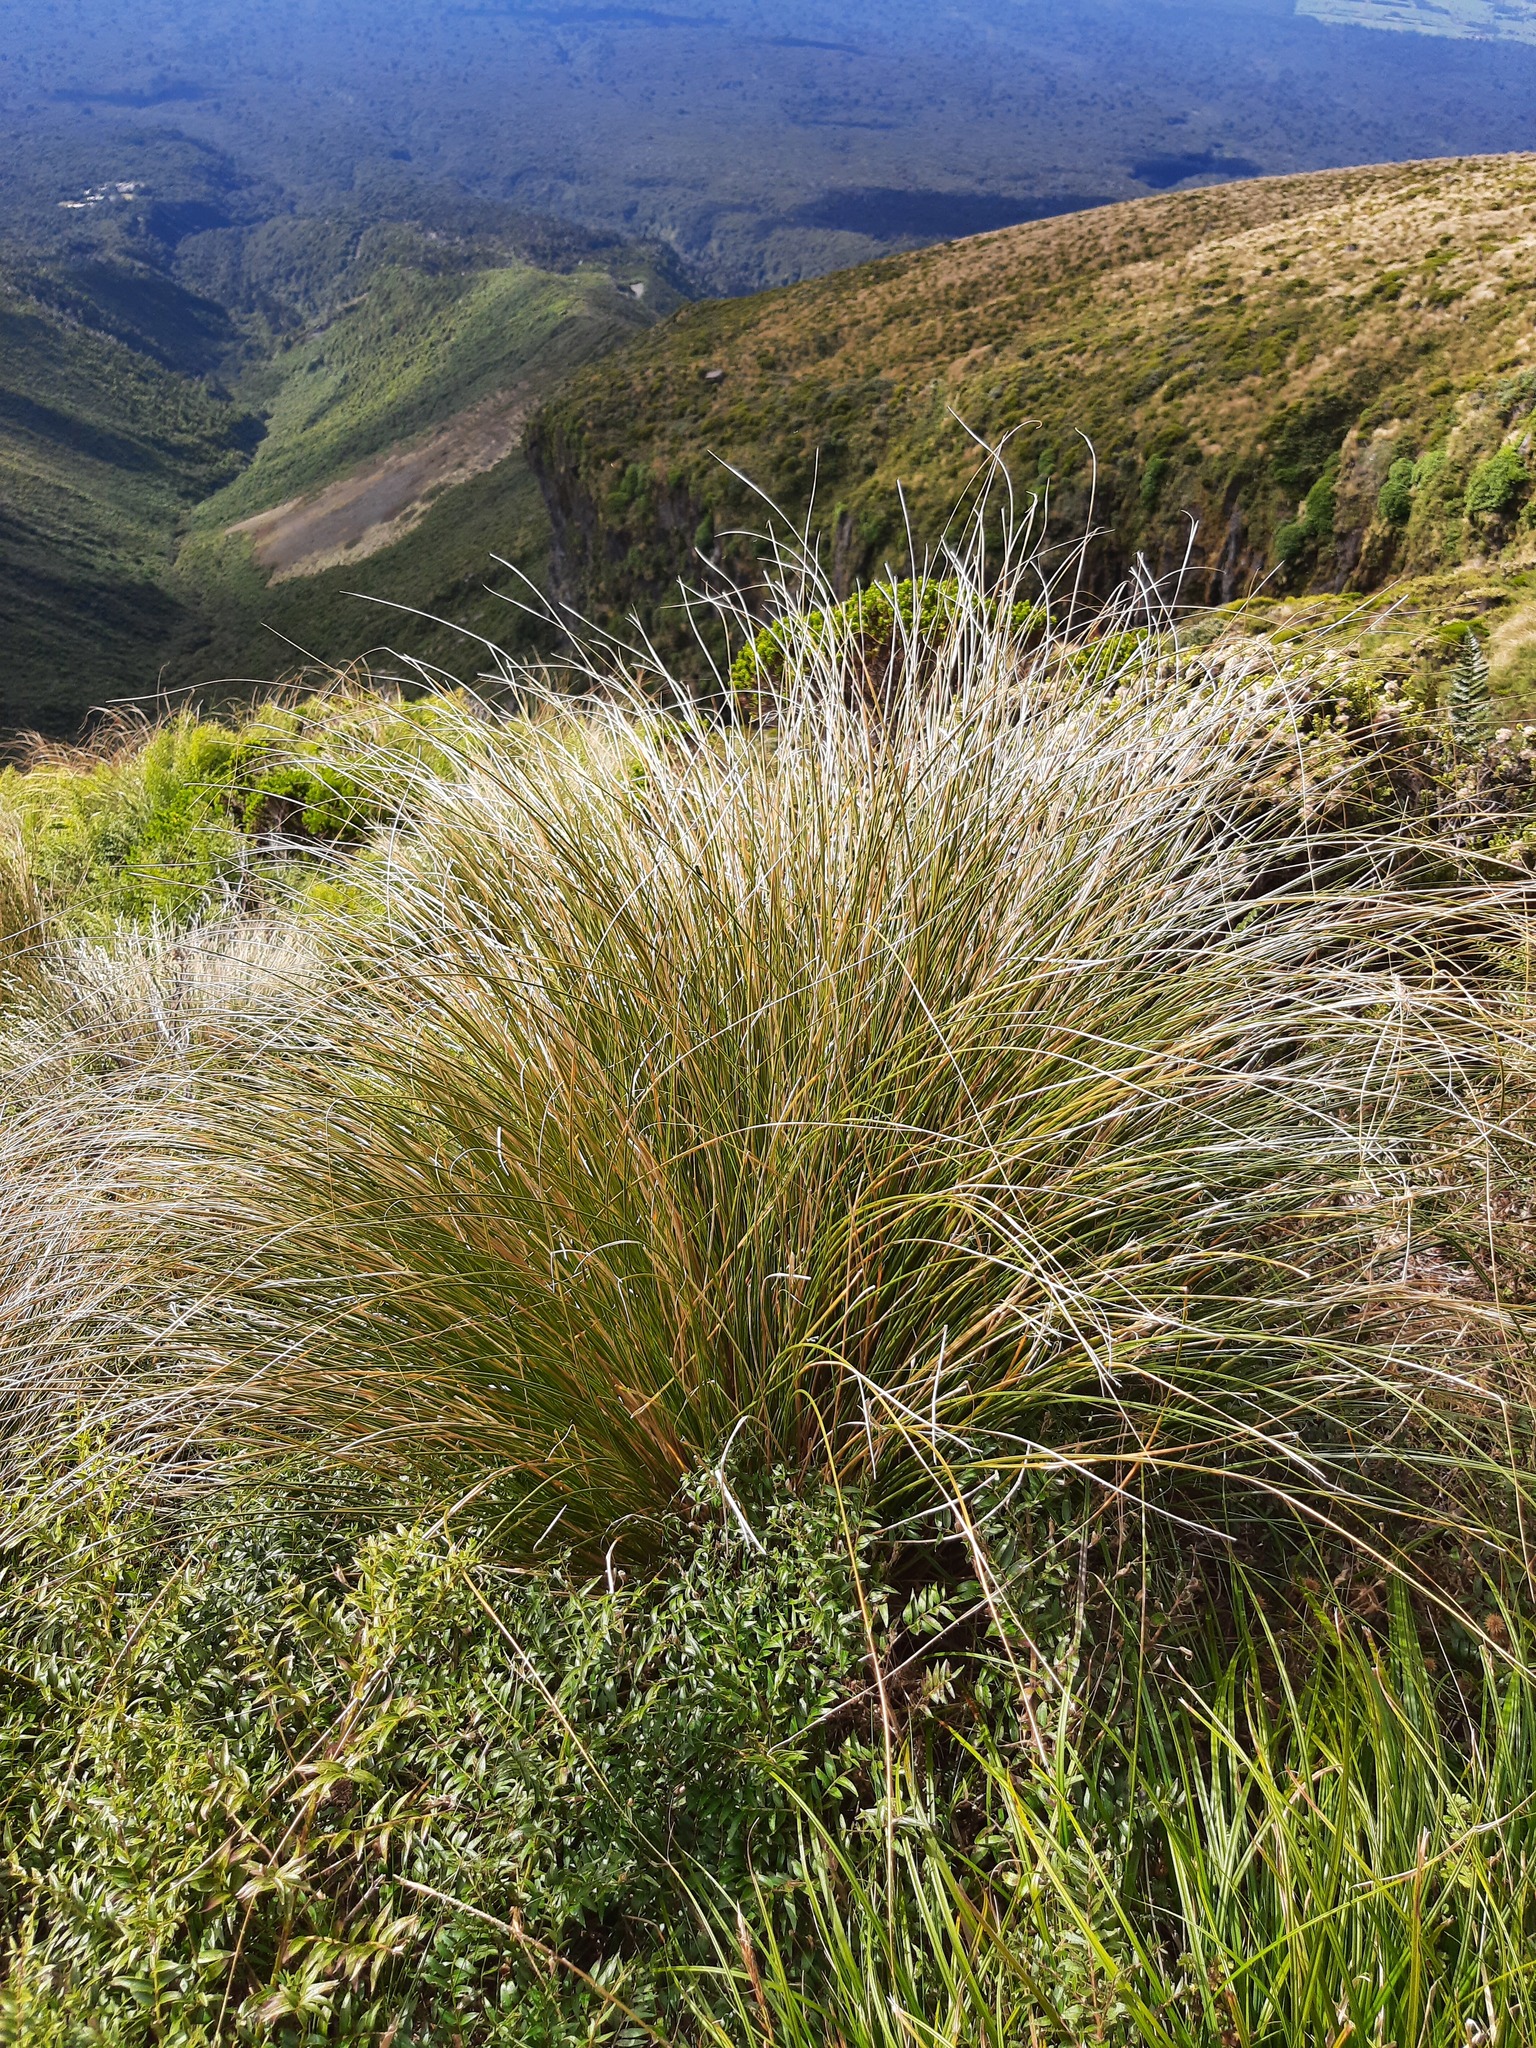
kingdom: Plantae
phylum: Tracheophyta
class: Liliopsida
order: Poales
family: Poaceae
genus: Chionochloa
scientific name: Chionochloa rubra
